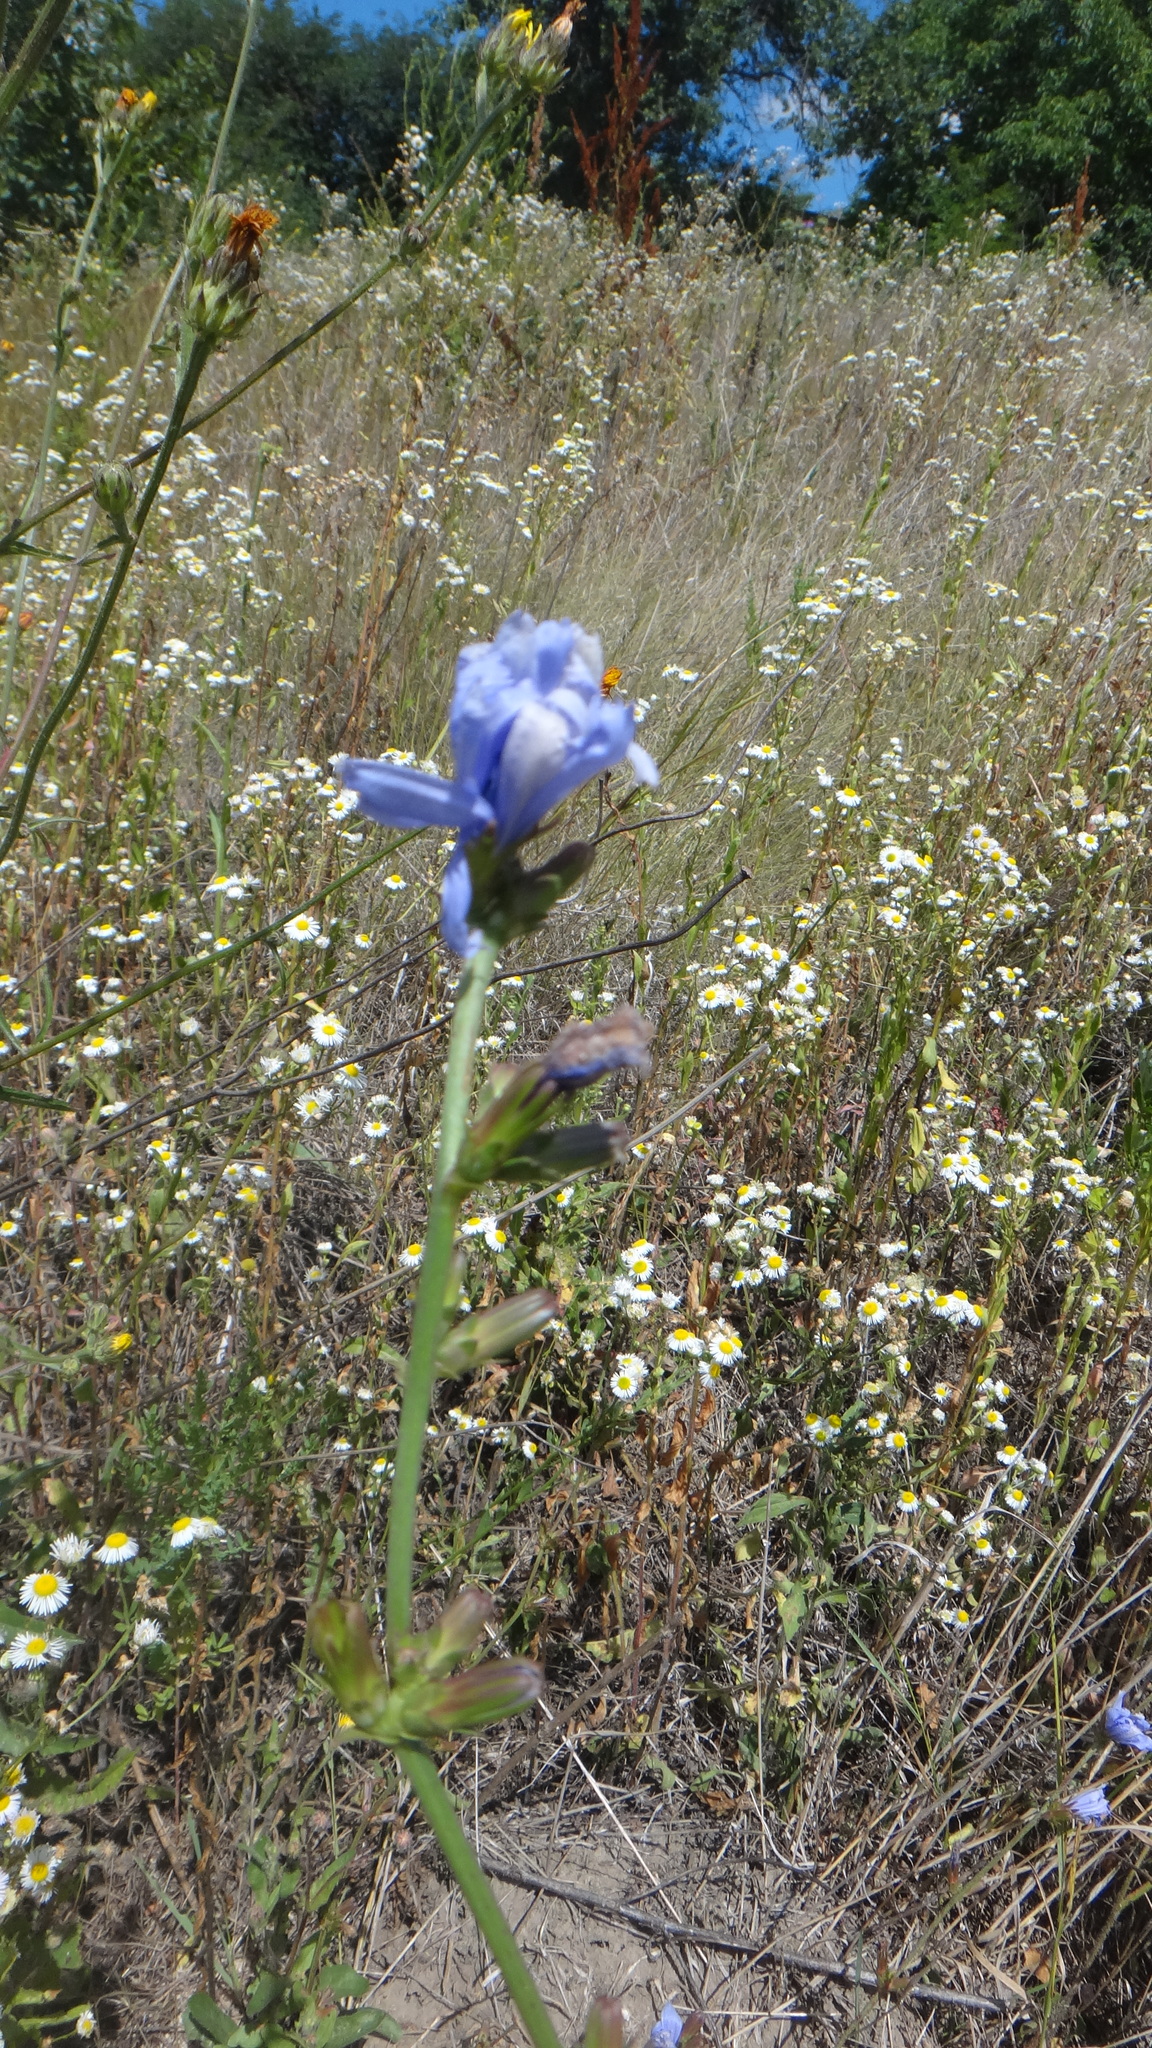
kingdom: Plantae
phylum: Tracheophyta
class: Magnoliopsida
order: Asterales
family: Asteraceae
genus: Cichorium
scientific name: Cichorium intybus
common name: Chicory
